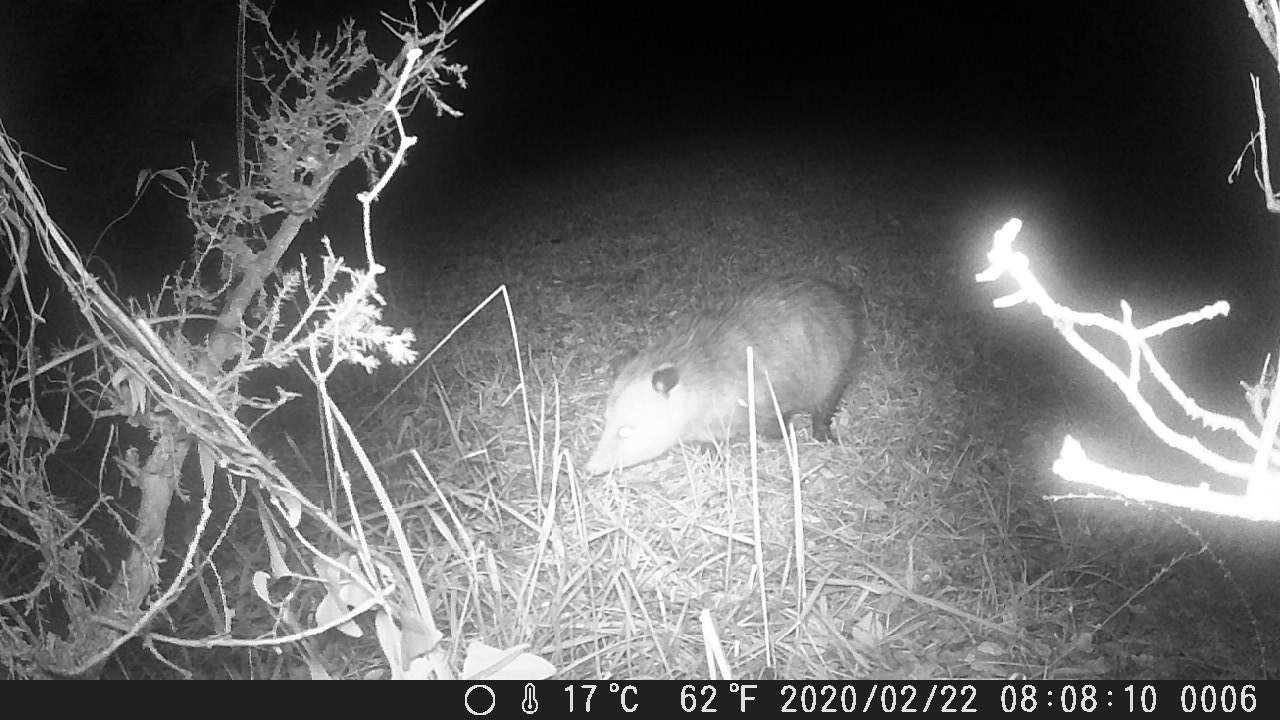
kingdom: Animalia
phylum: Chordata
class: Mammalia
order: Didelphimorphia
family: Didelphidae
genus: Didelphis
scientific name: Didelphis virginiana
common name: Virginia opossum
